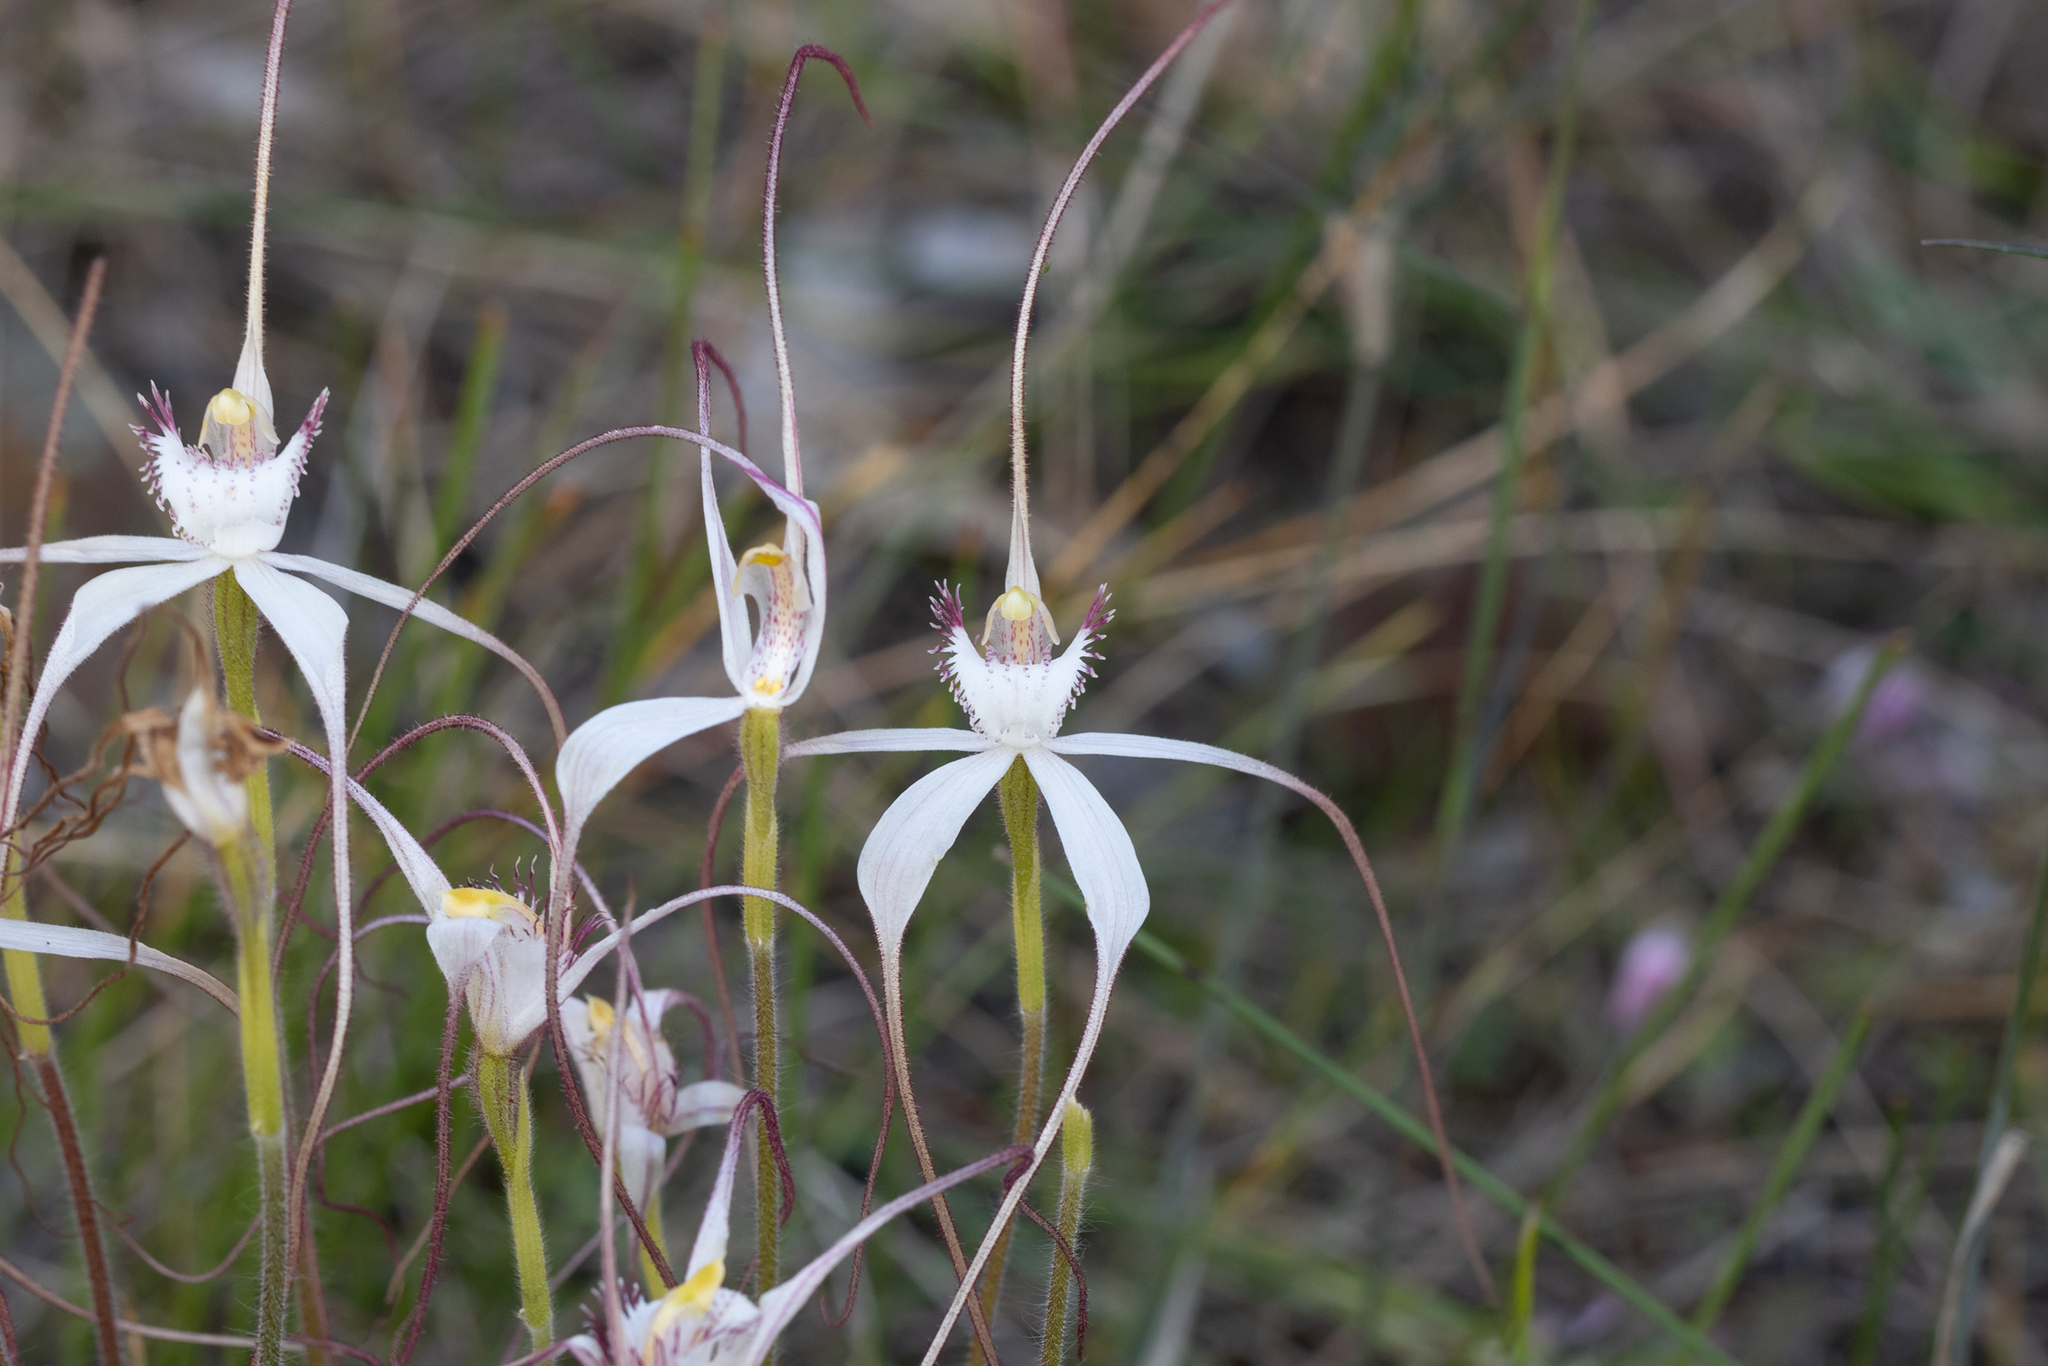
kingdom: Plantae
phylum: Tracheophyta
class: Liliopsida
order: Asparagales
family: Orchidaceae
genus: Caladenia
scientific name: Caladenia longicauda
